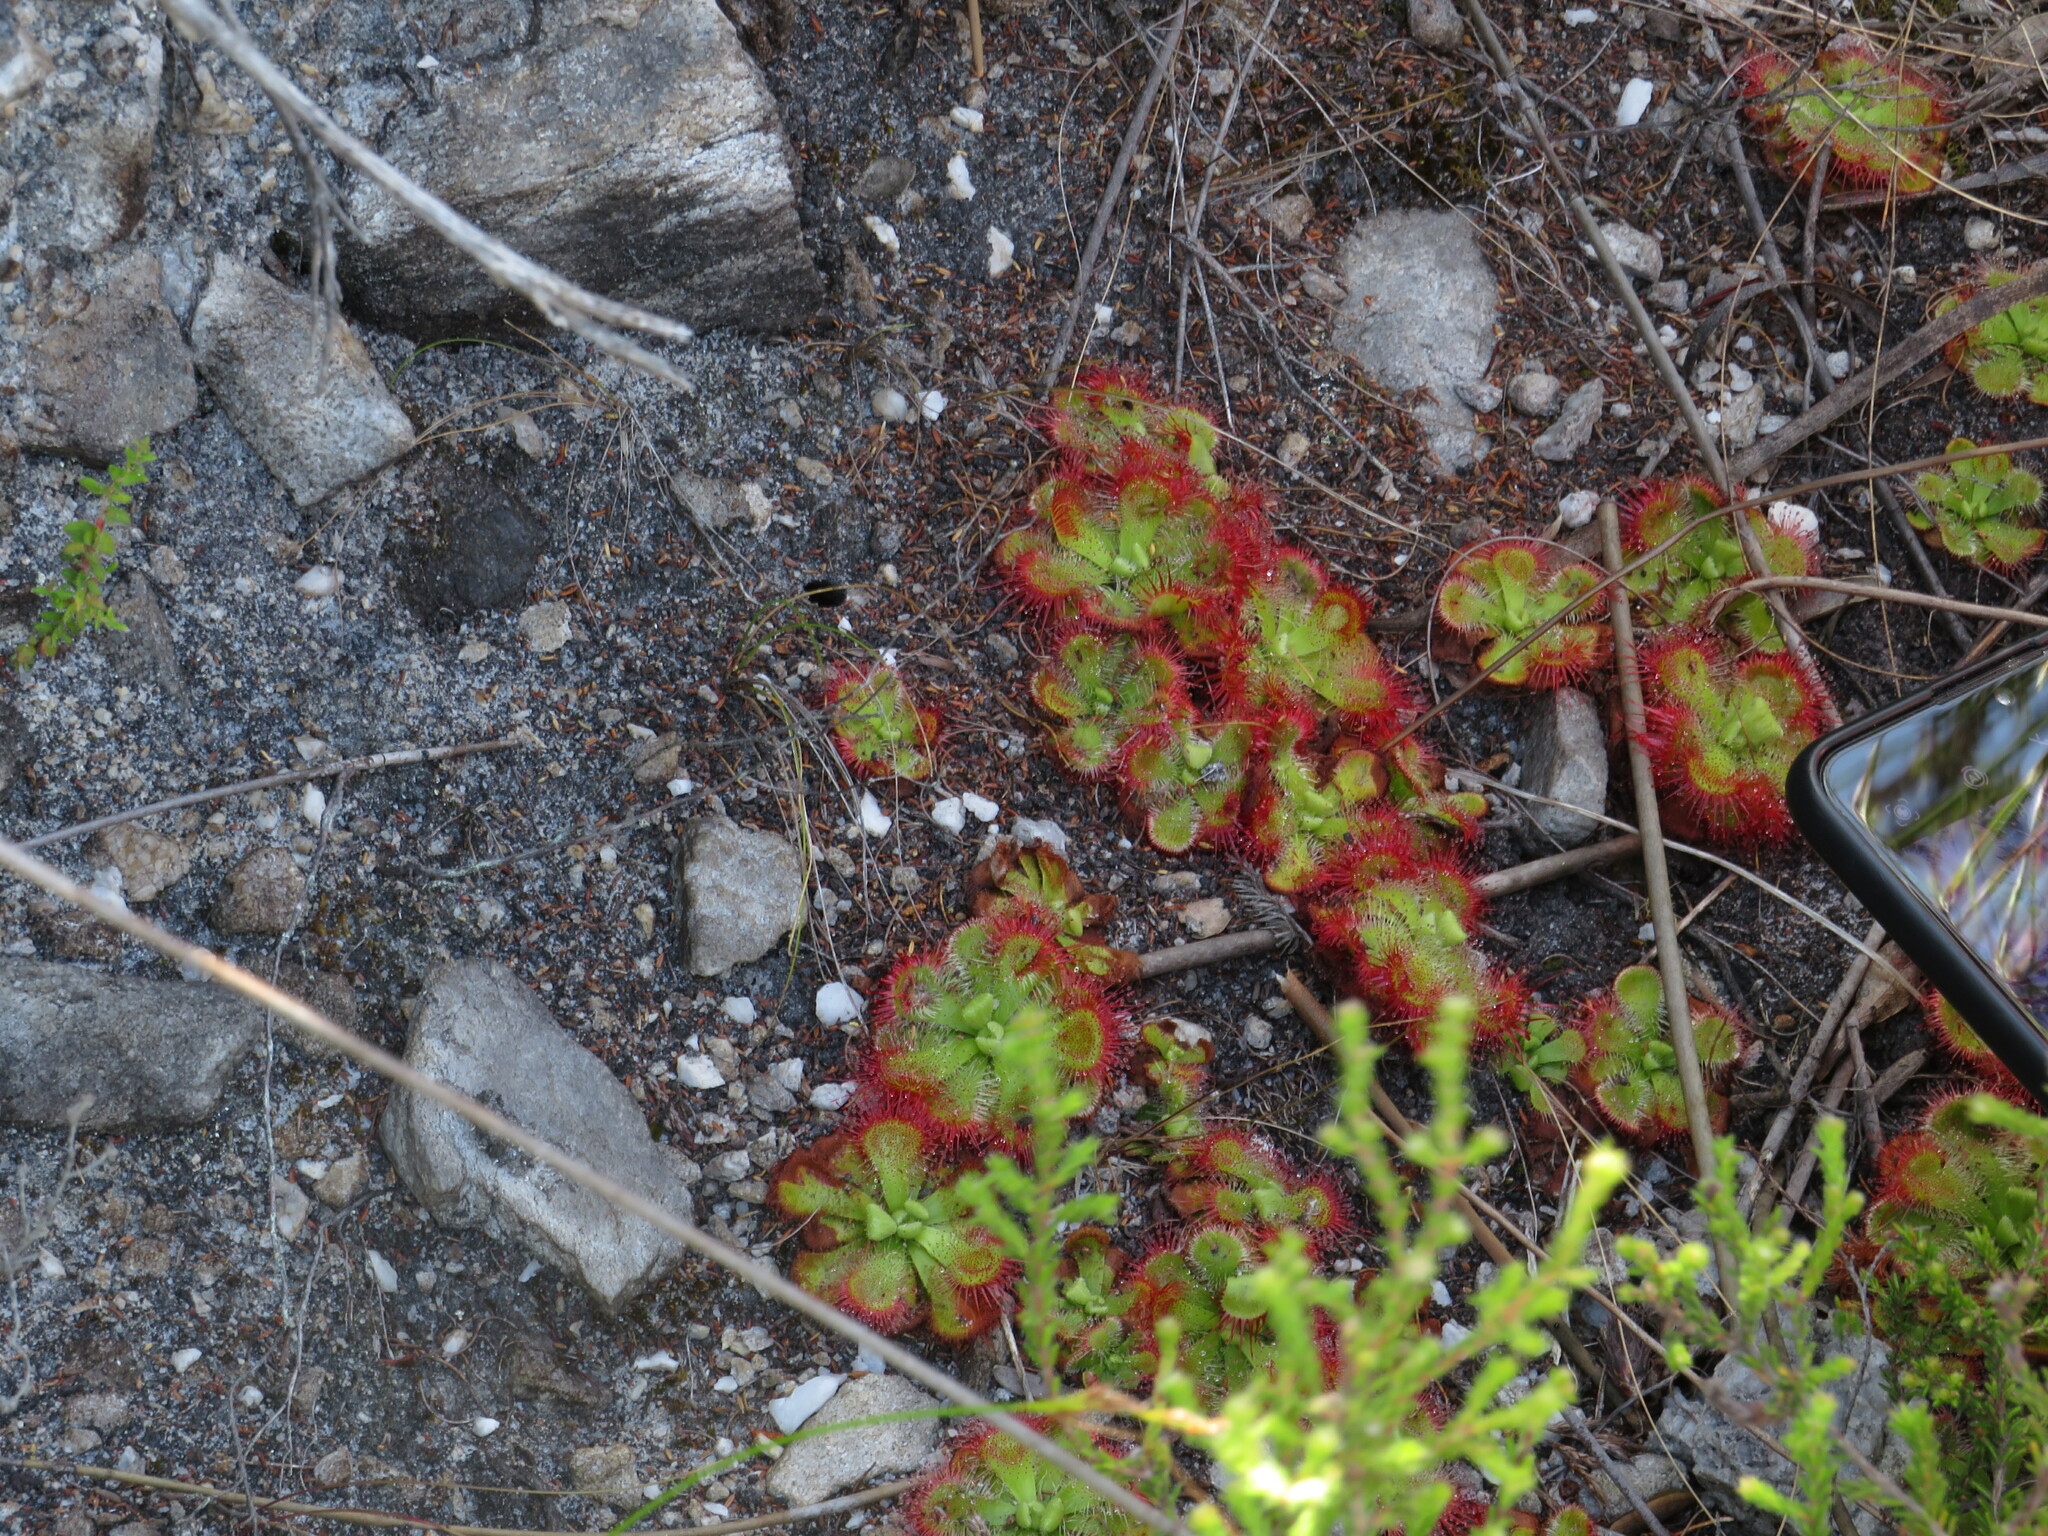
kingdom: Plantae
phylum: Tracheophyta
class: Magnoliopsida
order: Caryophyllales
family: Droseraceae
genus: Drosera
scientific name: Drosera xerophila
